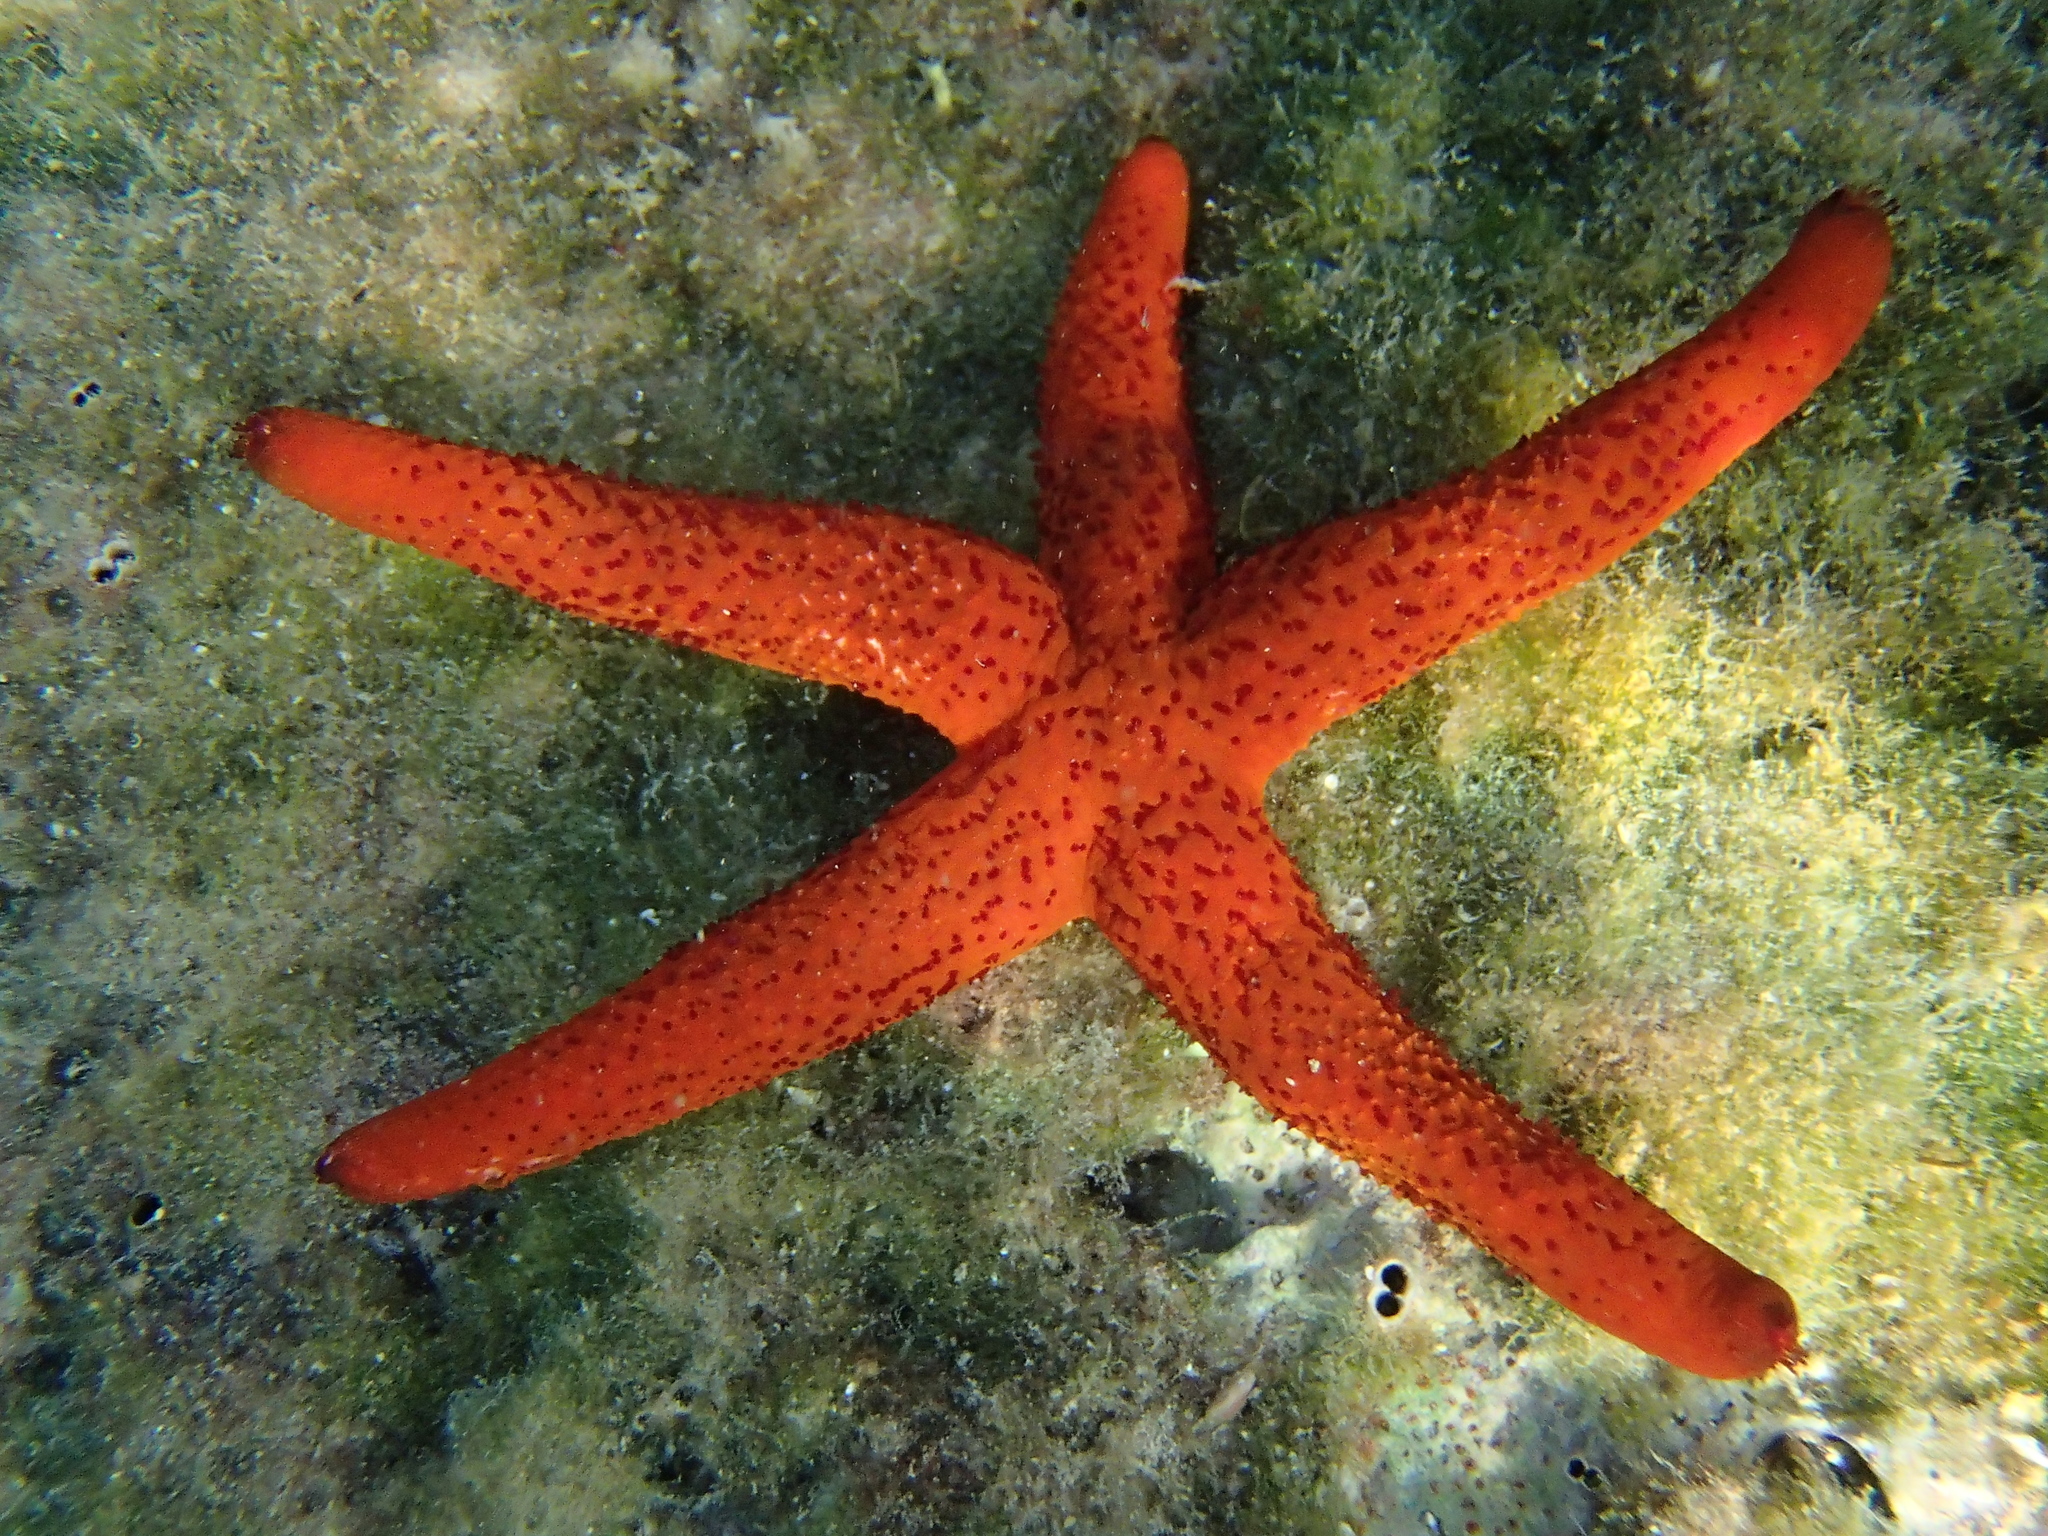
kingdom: Animalia
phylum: Echinodermata
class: Asteroidea
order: Spinulosida
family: Echinasteridae
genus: Echinaster
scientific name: Echinaster sepositus
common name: Red starfish
